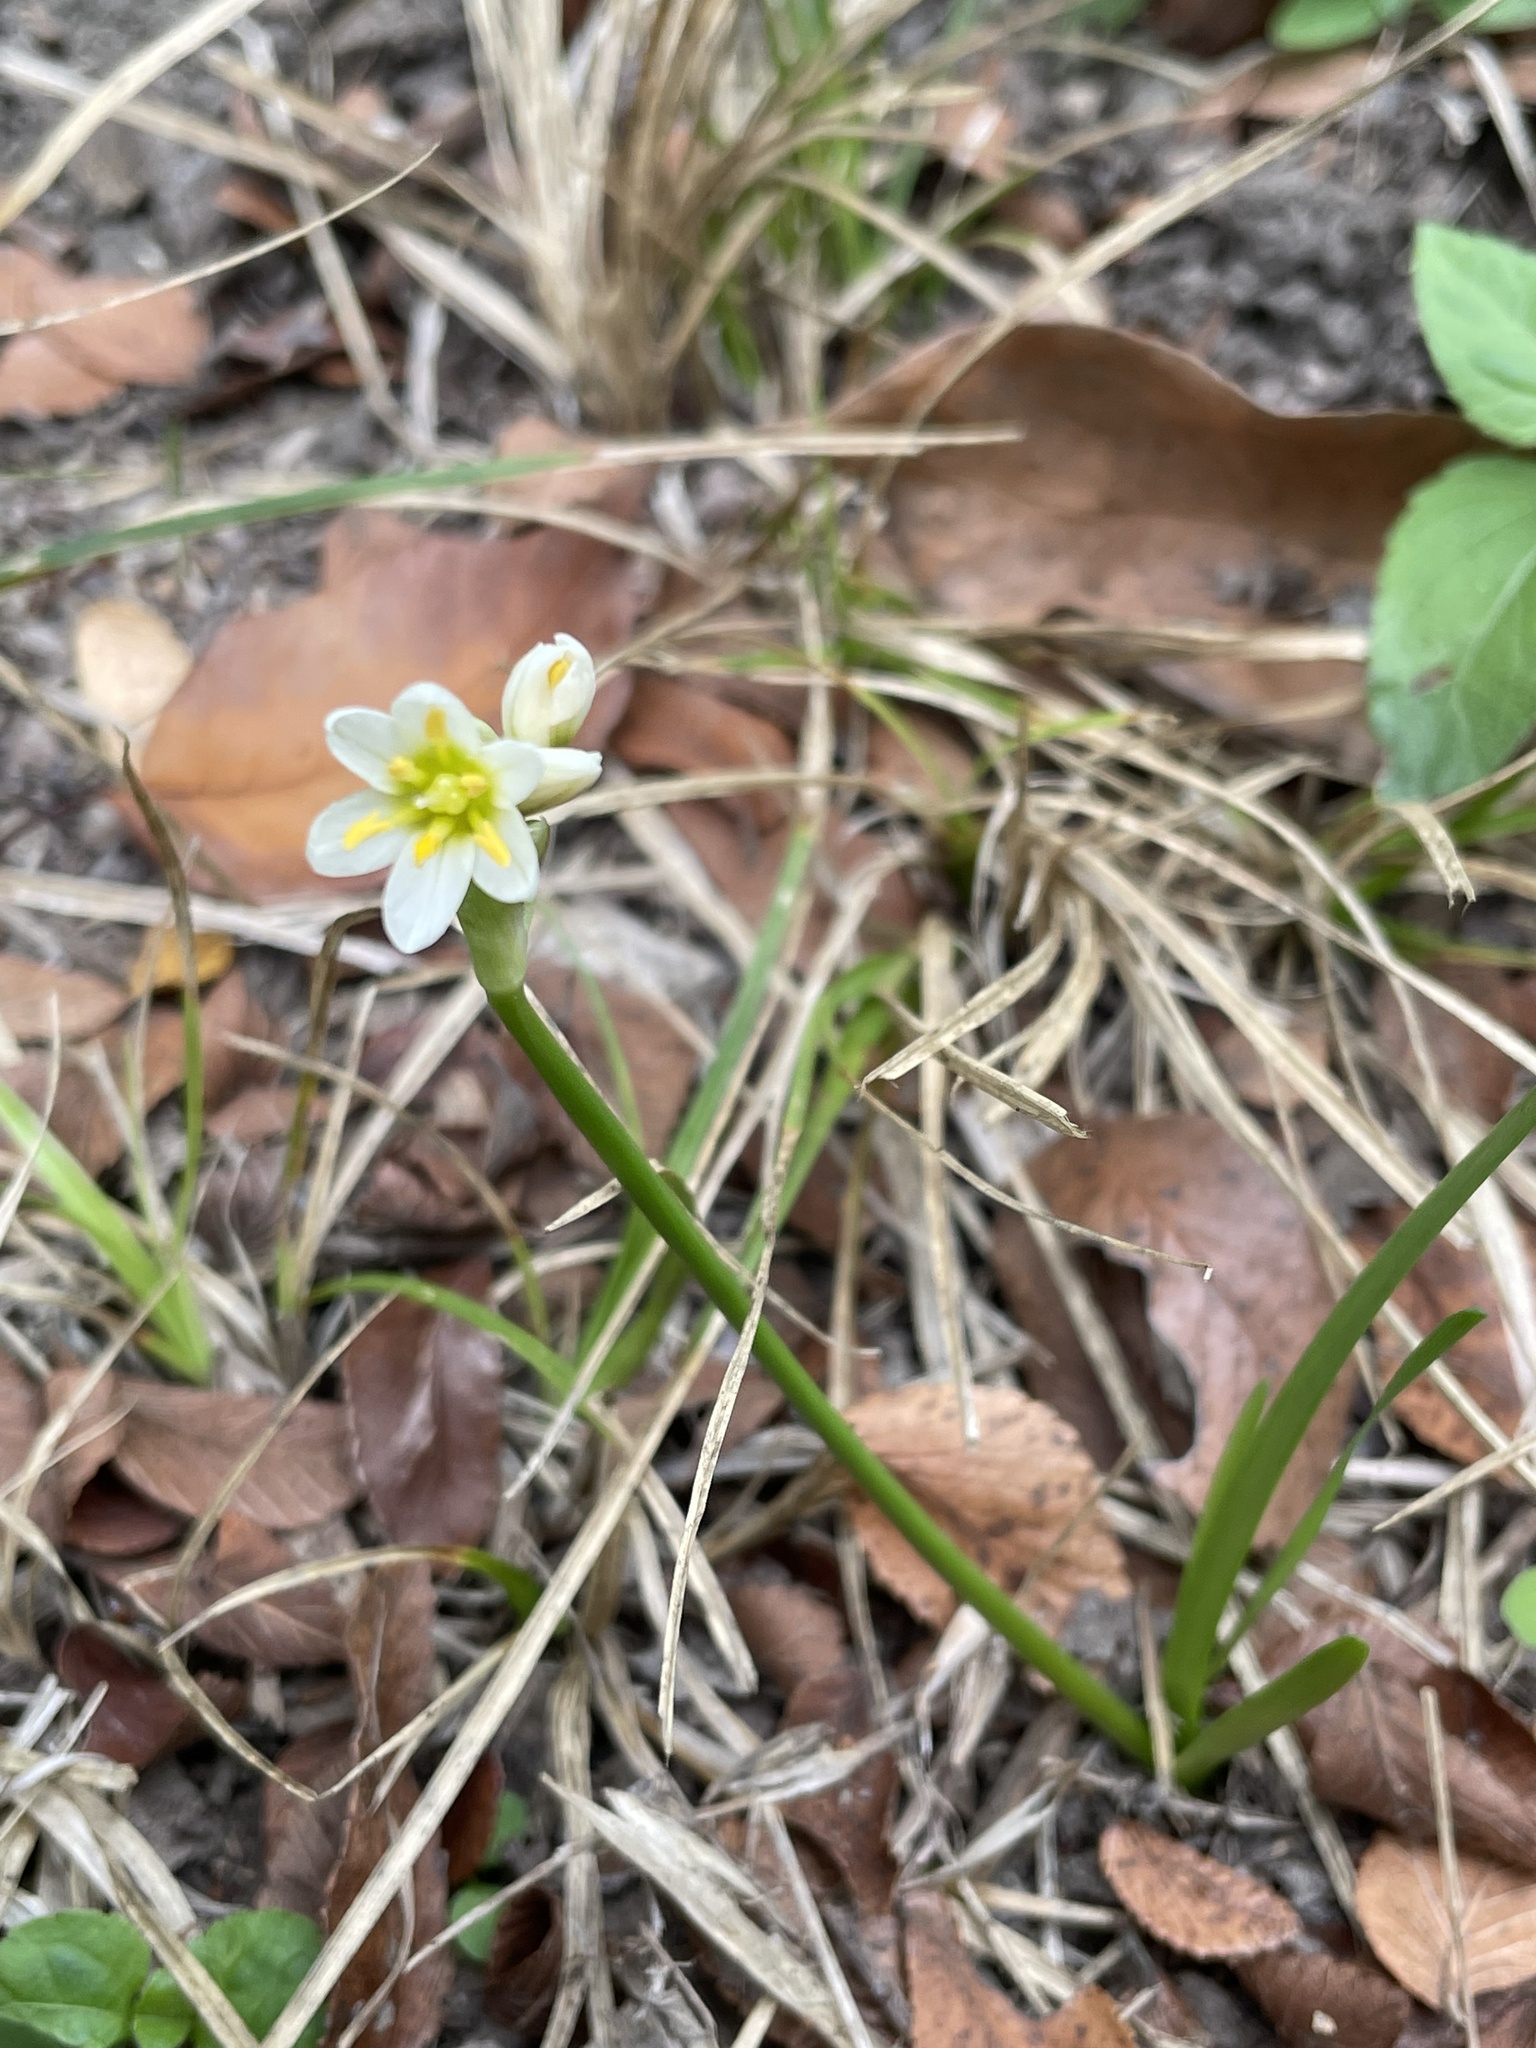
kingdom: Plantae
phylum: Tracheophyta
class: Liliopsida
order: Asparagales
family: Amaryllidaceae
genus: Nothoscordum
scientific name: Nothoscordum bivalve
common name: Crow-poison
